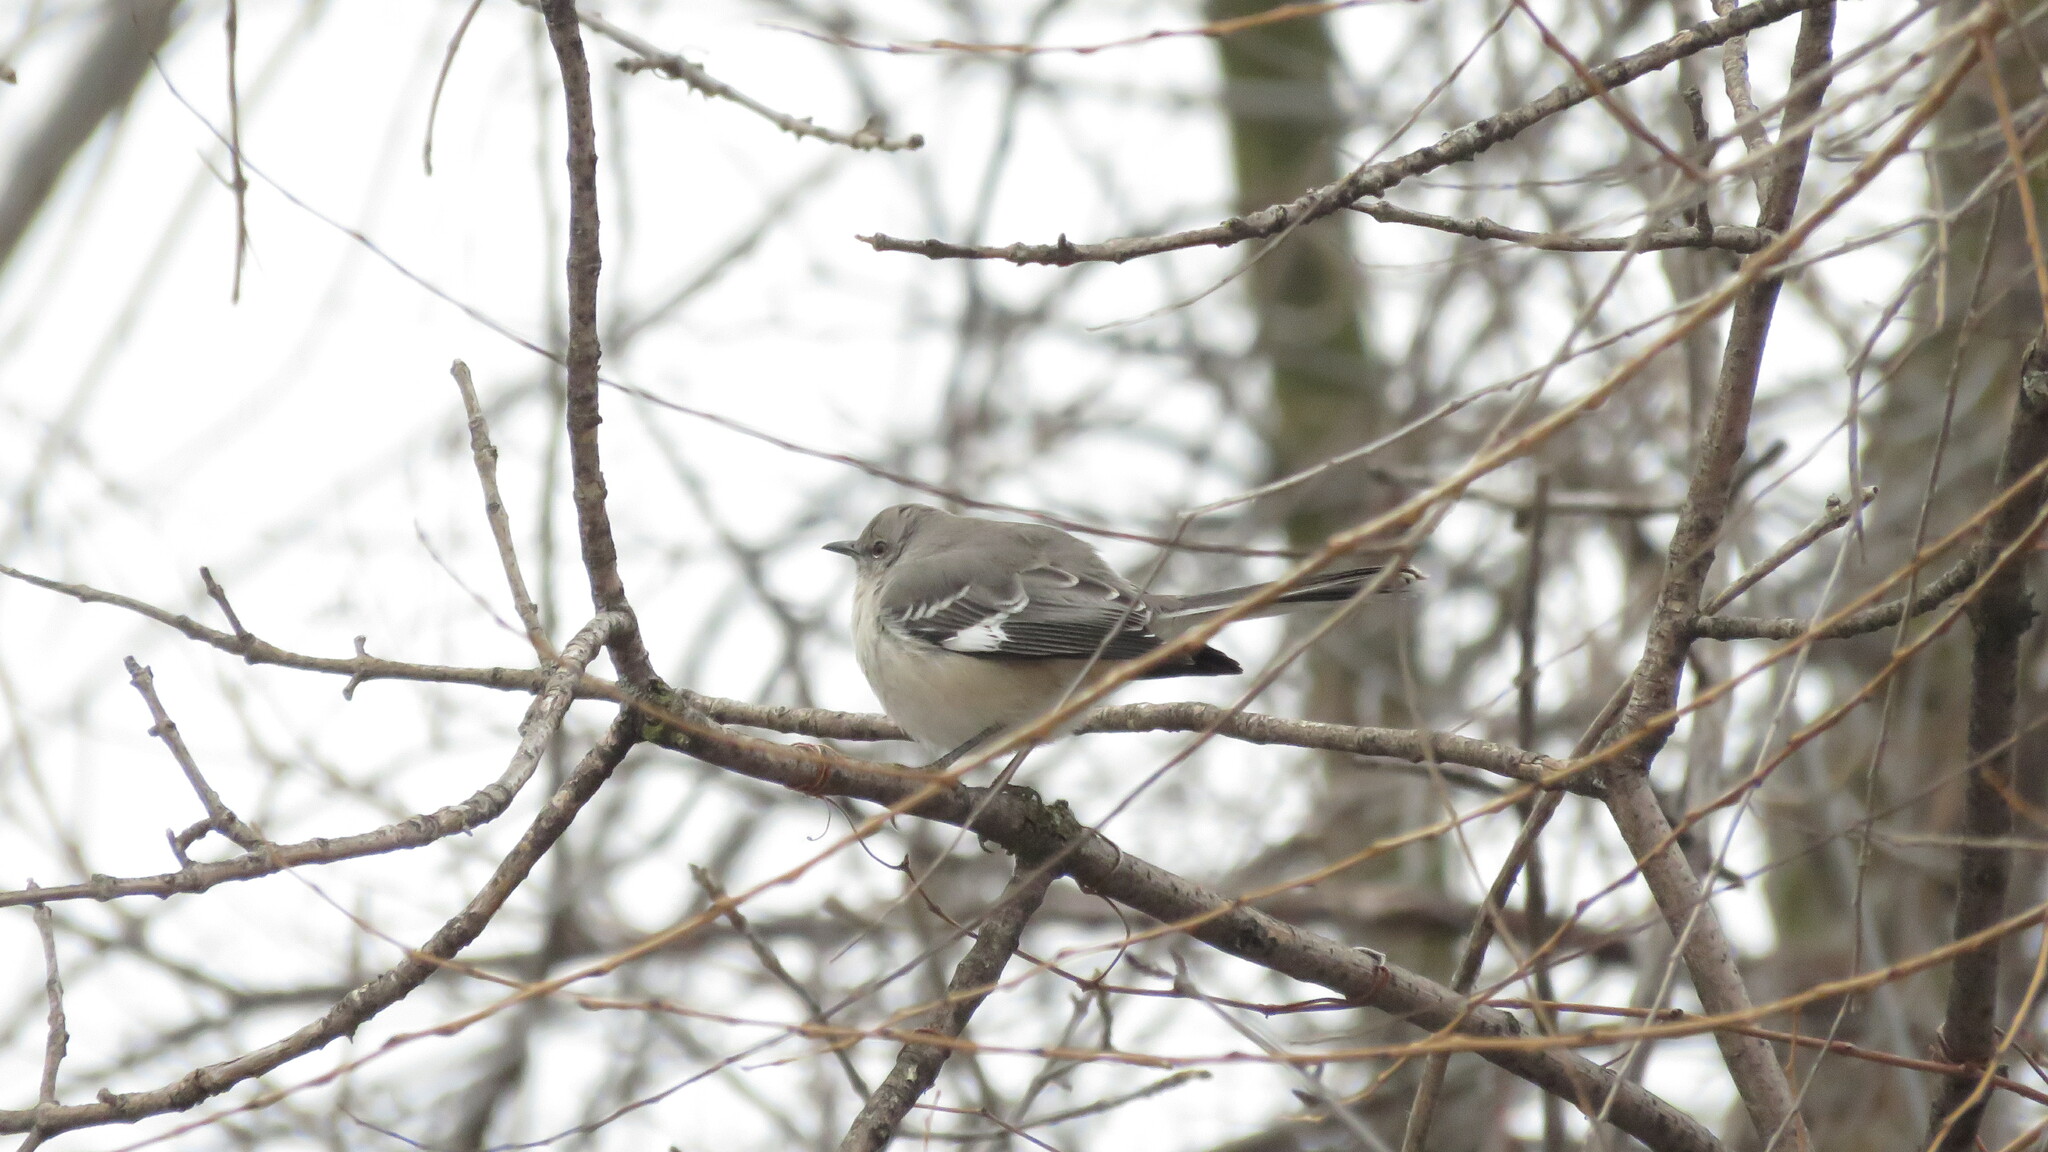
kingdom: Animalia
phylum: Chordata
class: Aves
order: Passeriformes
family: Mimidae
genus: Mimus
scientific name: Mimus polyglottos
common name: Northern mockingbird
